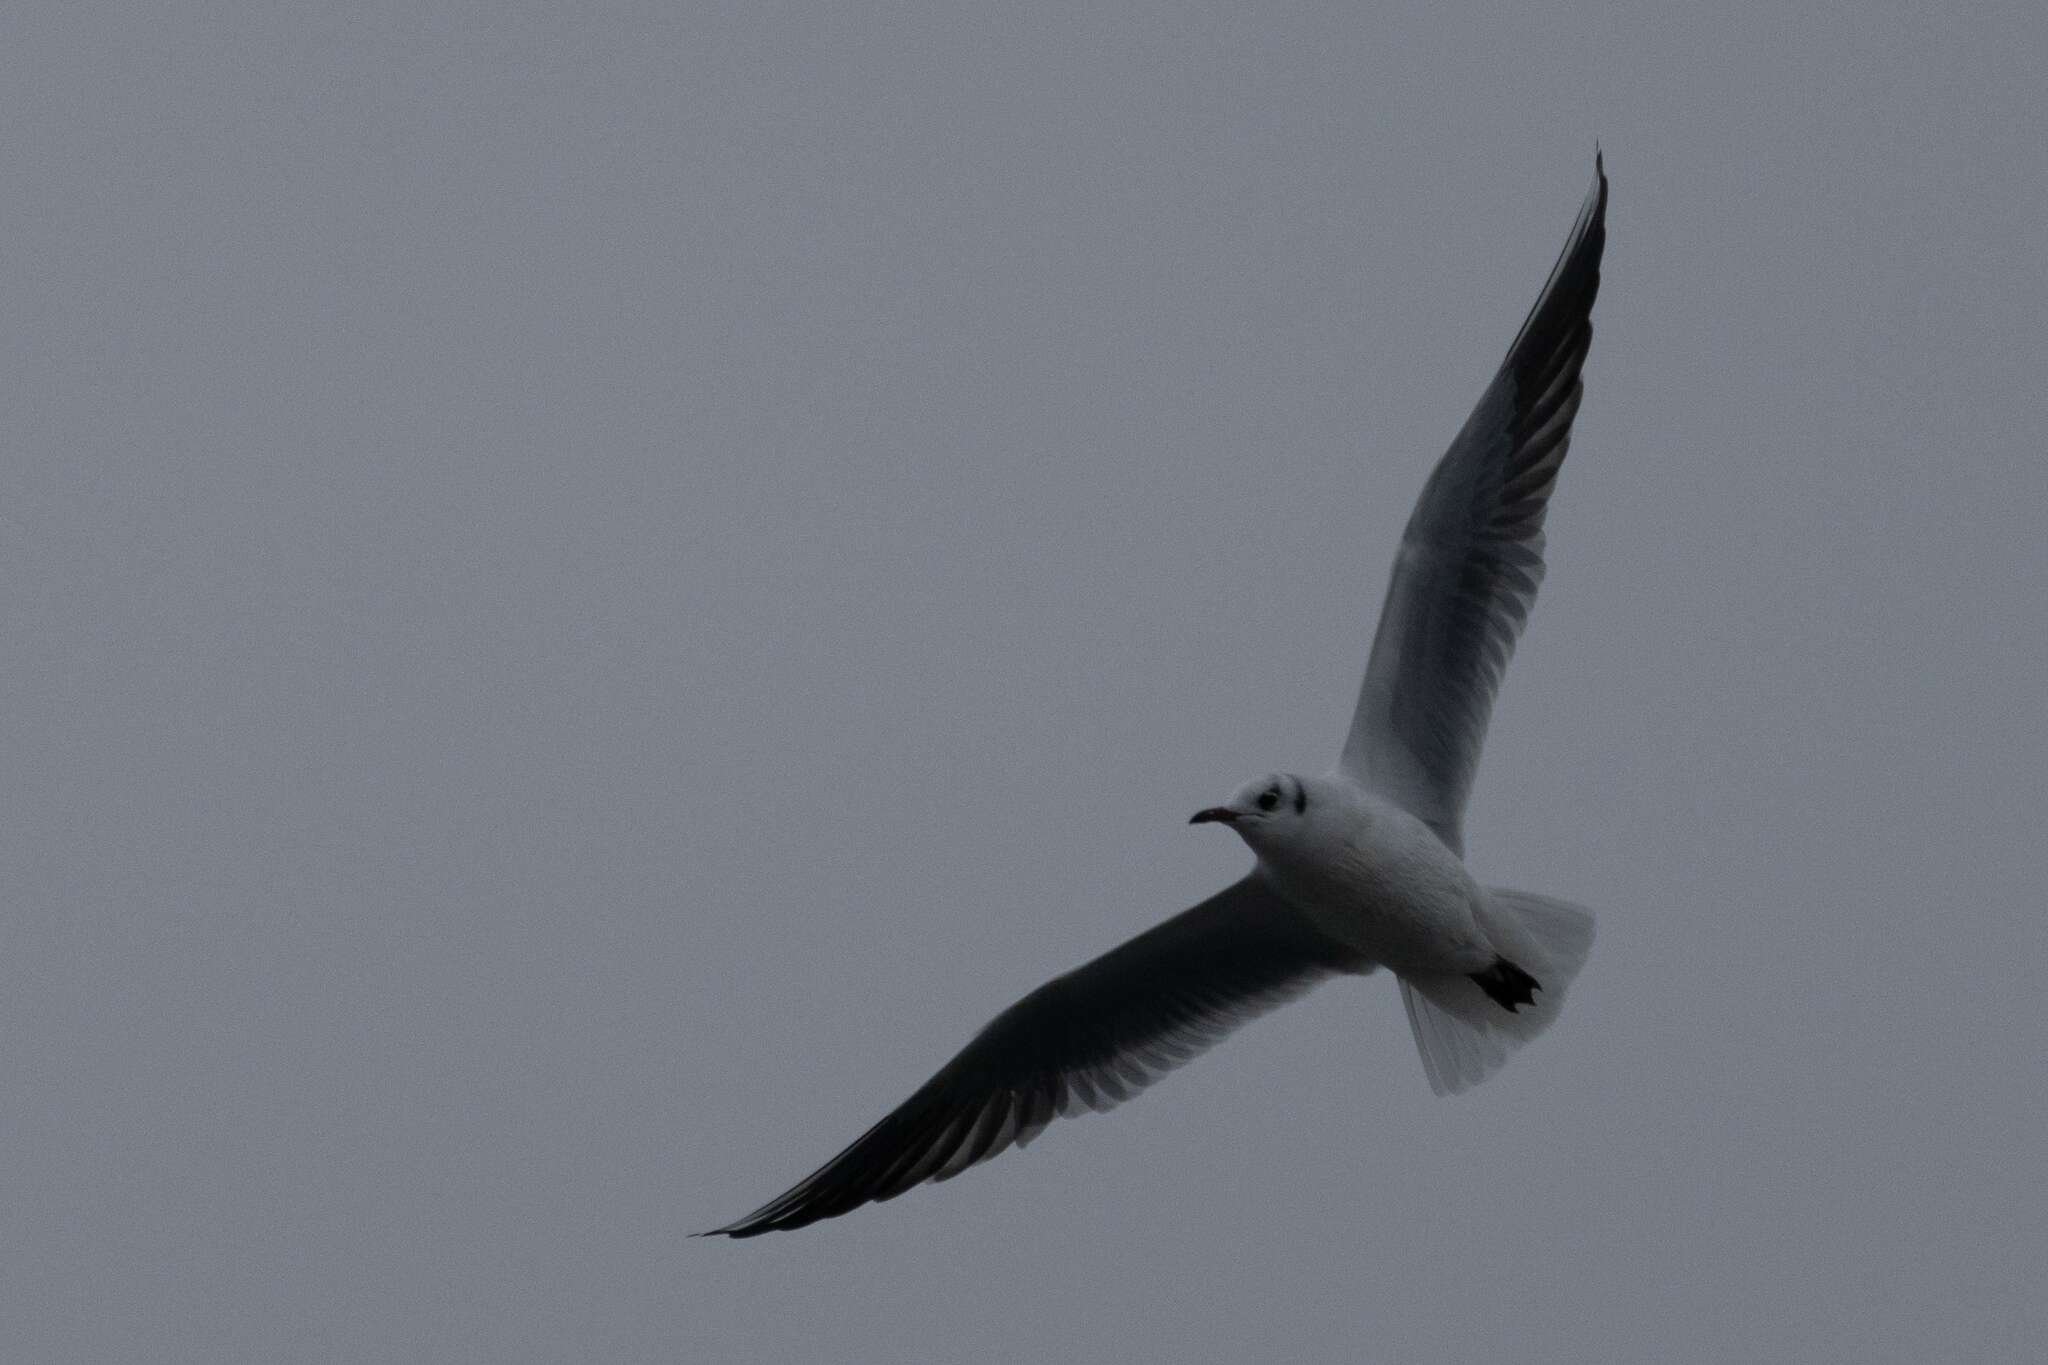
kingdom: Animalia
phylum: Chordata
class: Aves
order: Charadriiformes
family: Laridae
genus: Chroicocephalus
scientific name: Chroicocephalus ridibundus
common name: Black-headed gull
